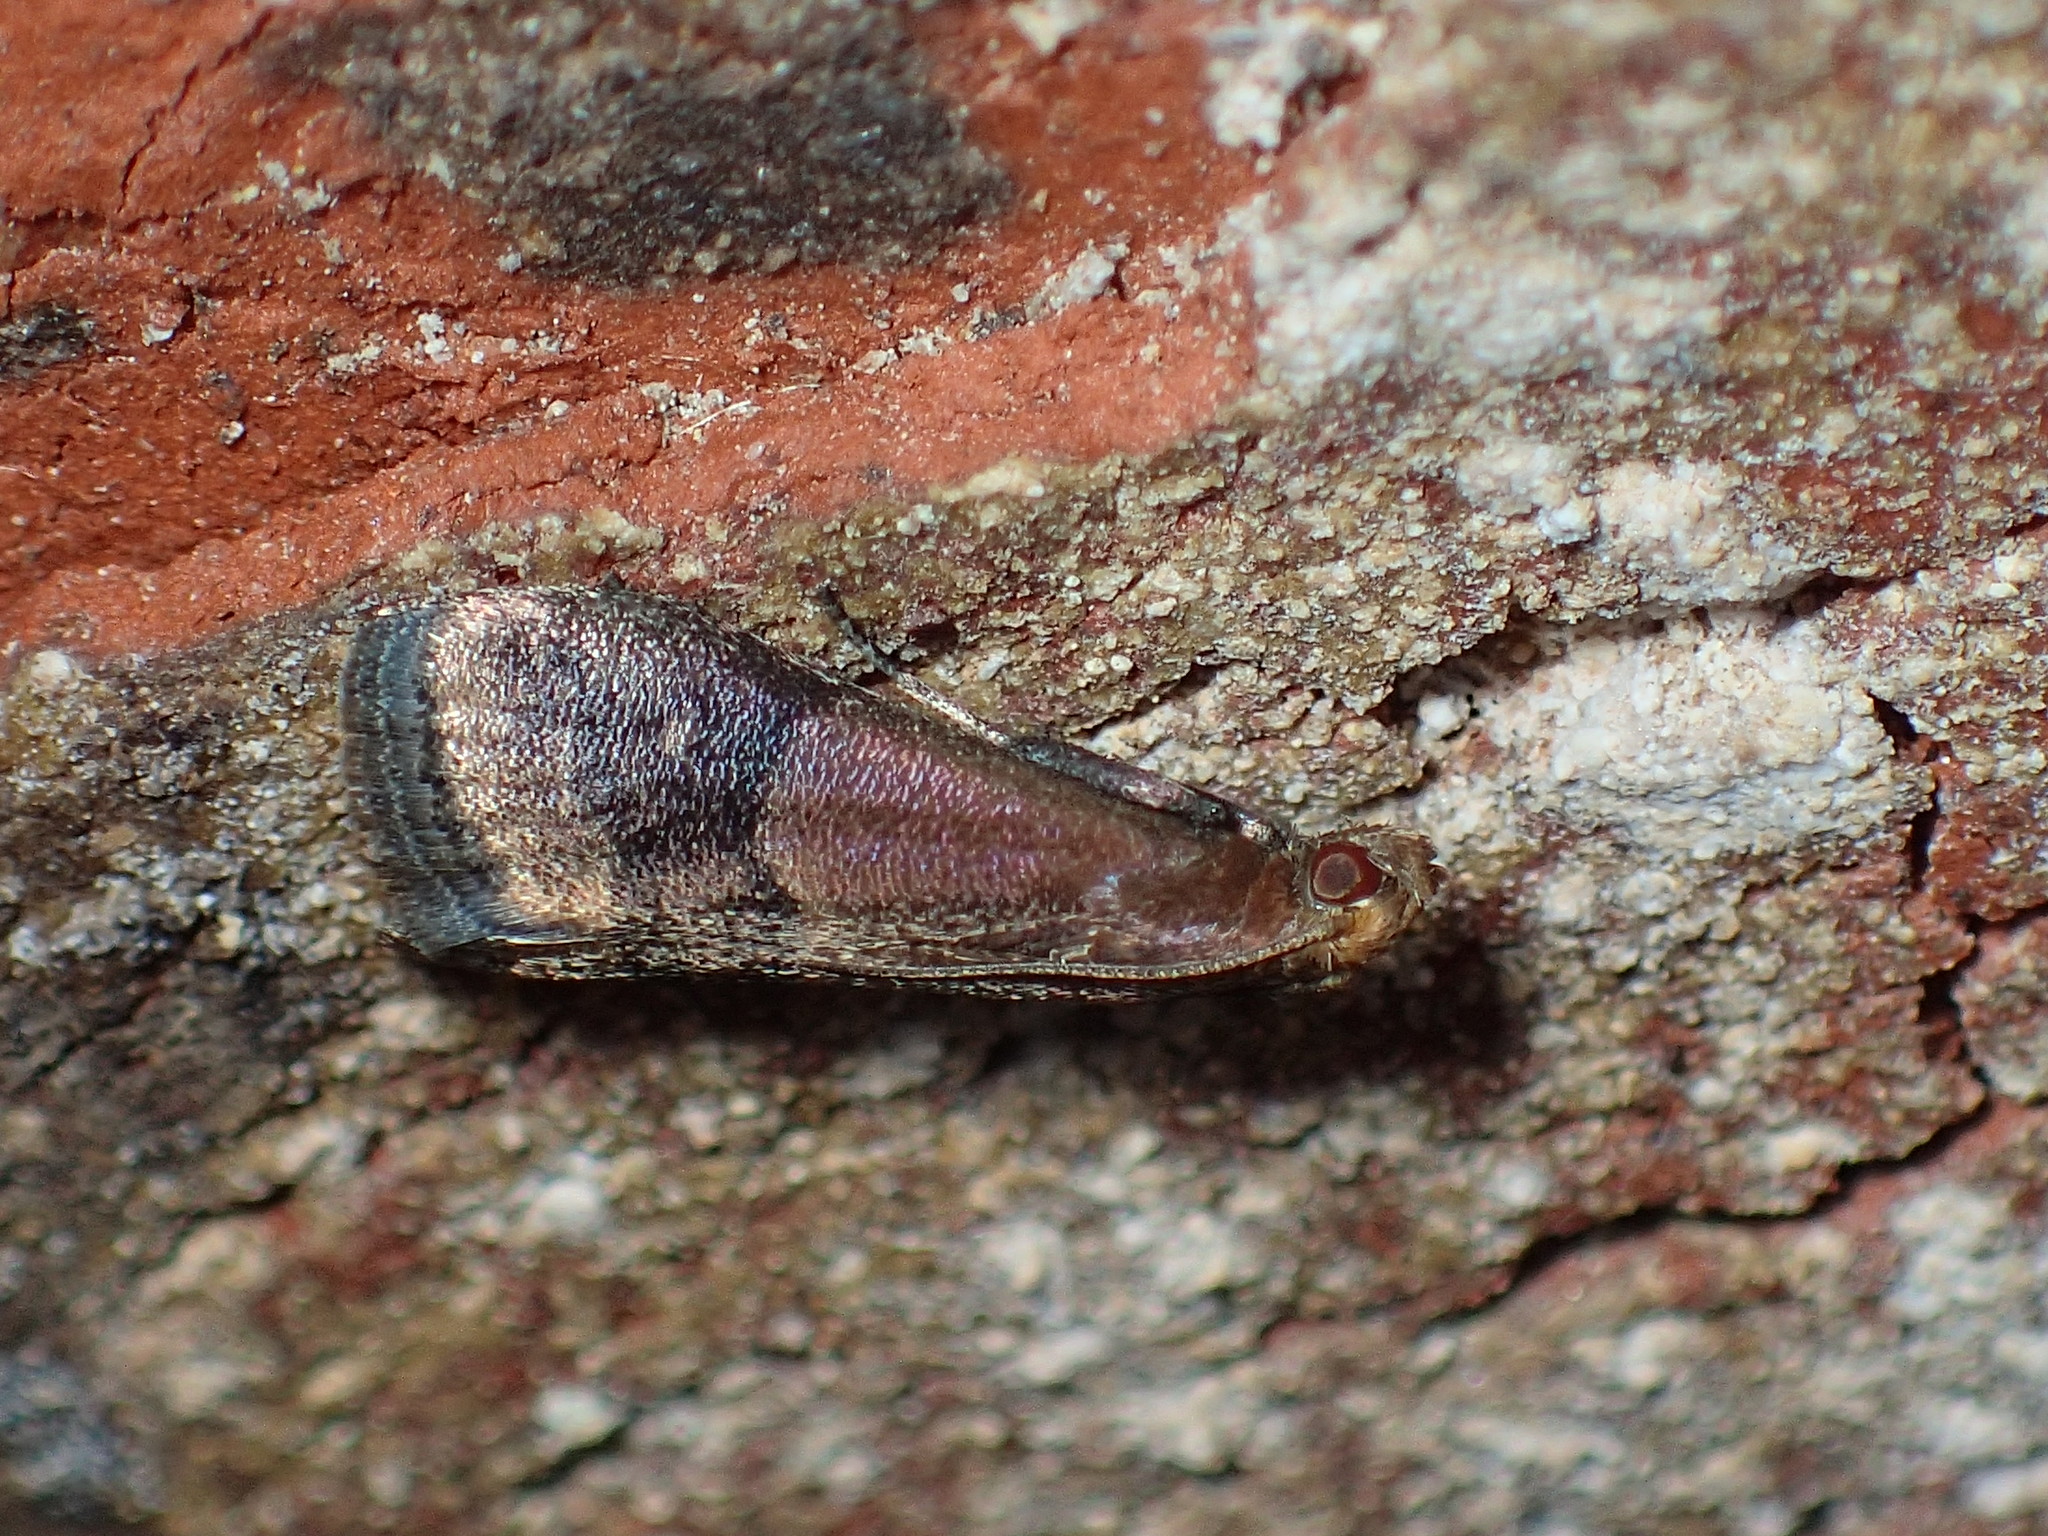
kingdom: Animalia
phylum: Arthropoda
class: Insecta
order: Lepidoptera
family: Pyralidae
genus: Eulogia
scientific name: Eulogia ochrifrontella
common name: Broad-banded eulogia moth
